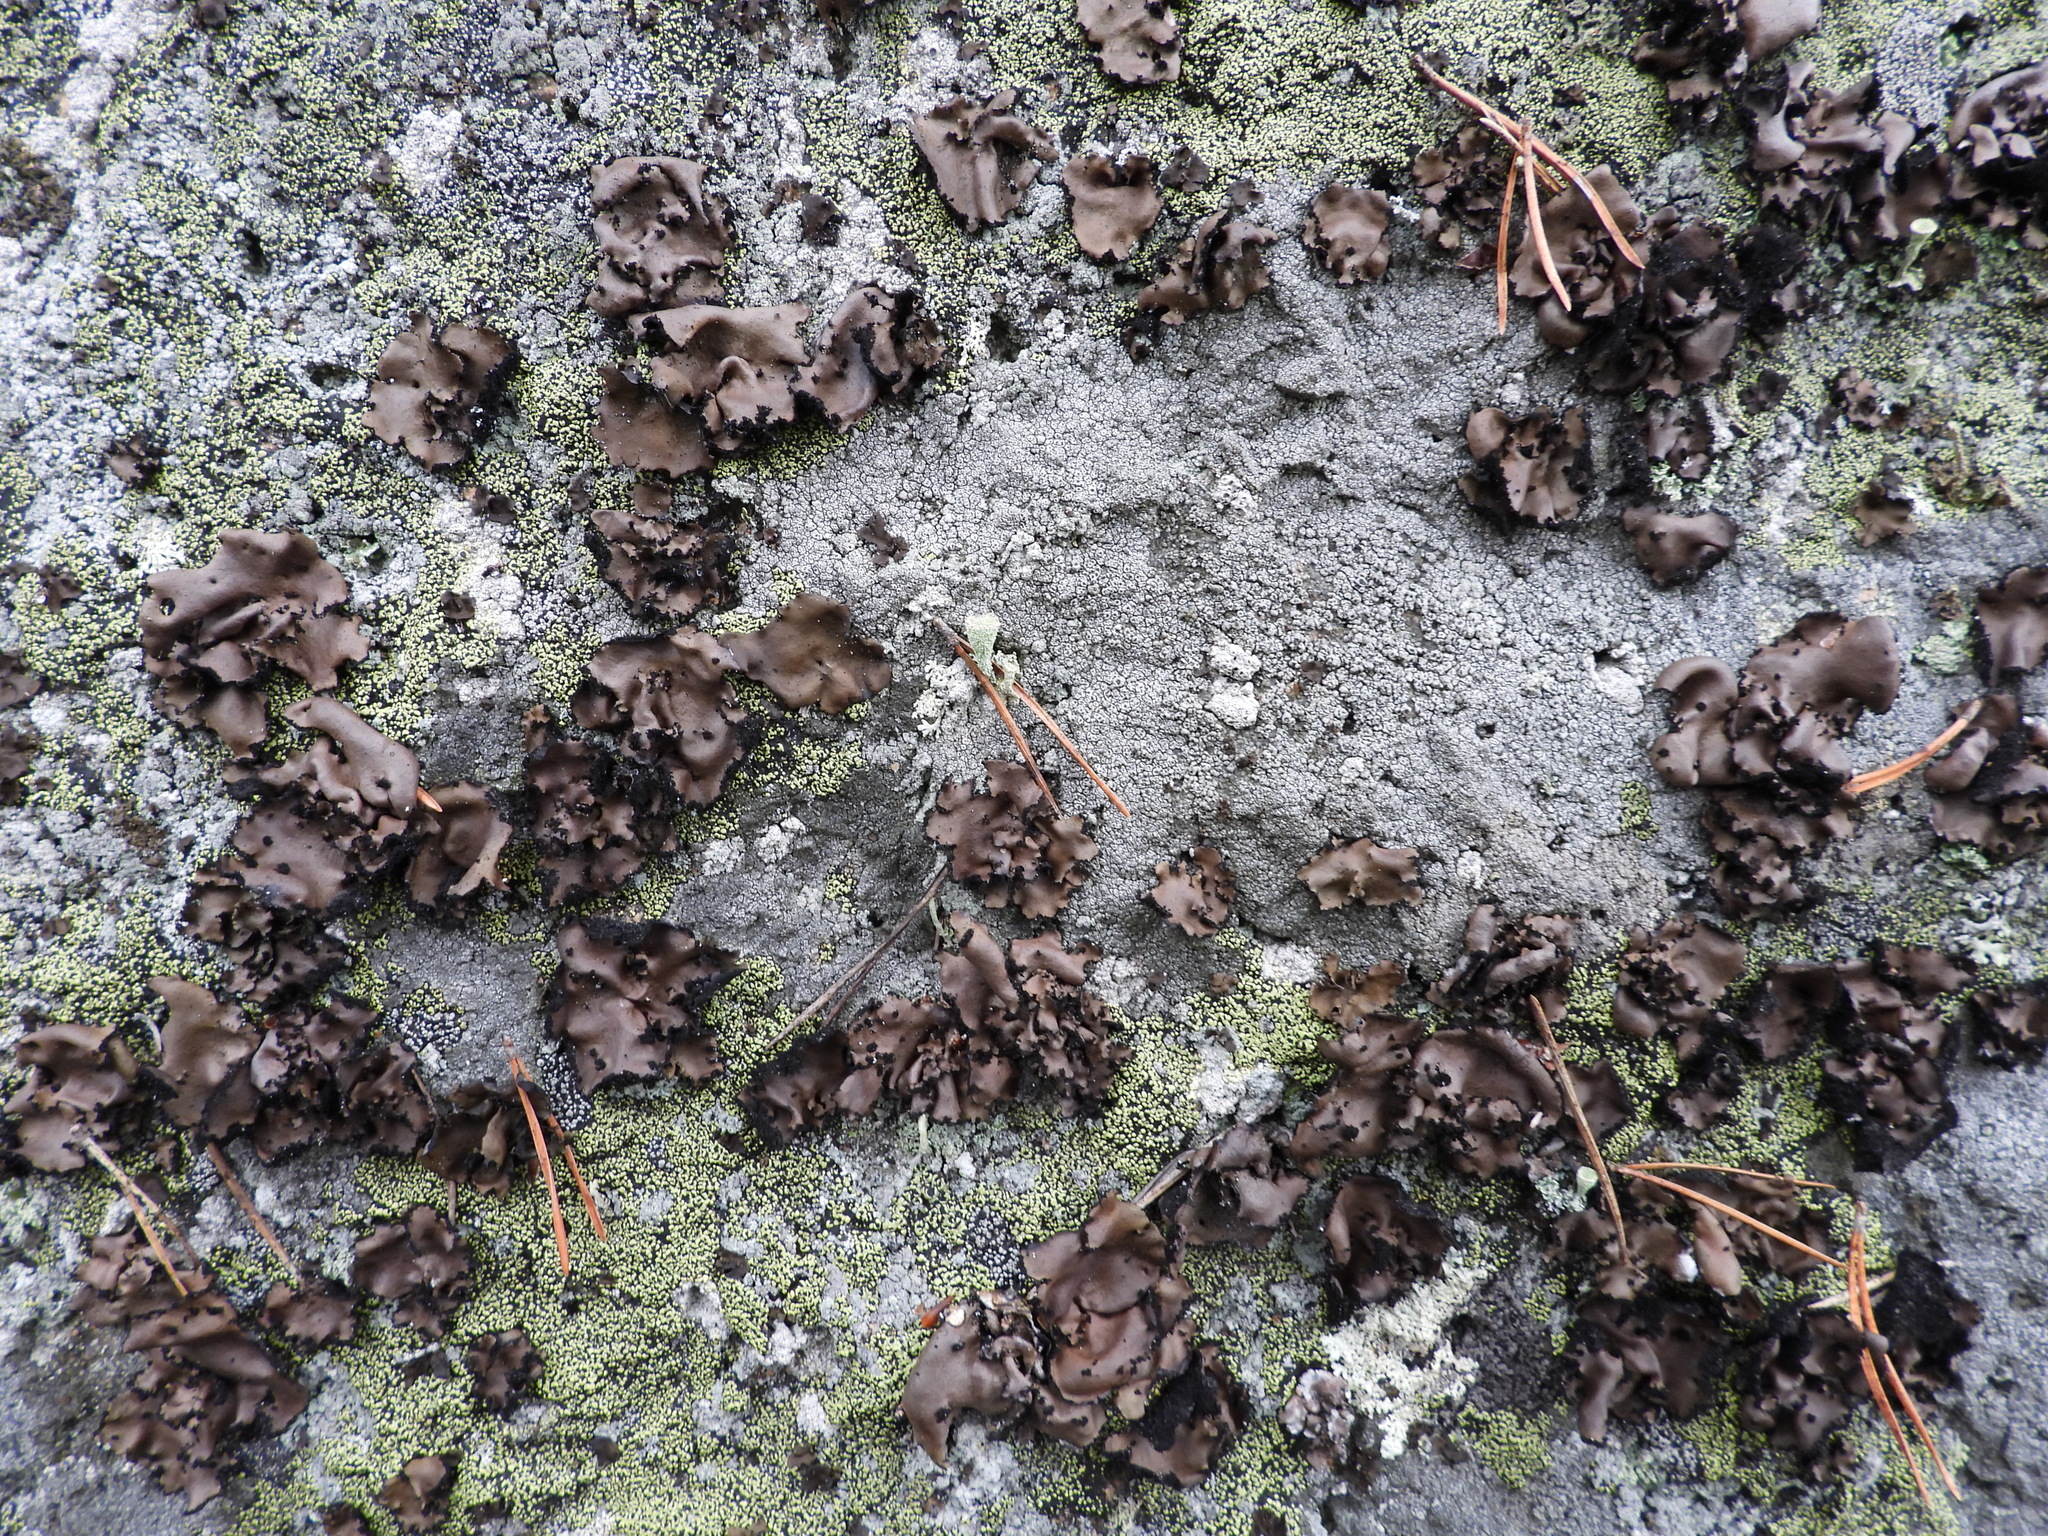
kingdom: Fungi
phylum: Ascomycota
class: Lecanoromycetes
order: Umbilicariales
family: Umbilicariaceae
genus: Umbilicaria
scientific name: Umbilicaria polyrrhiza
